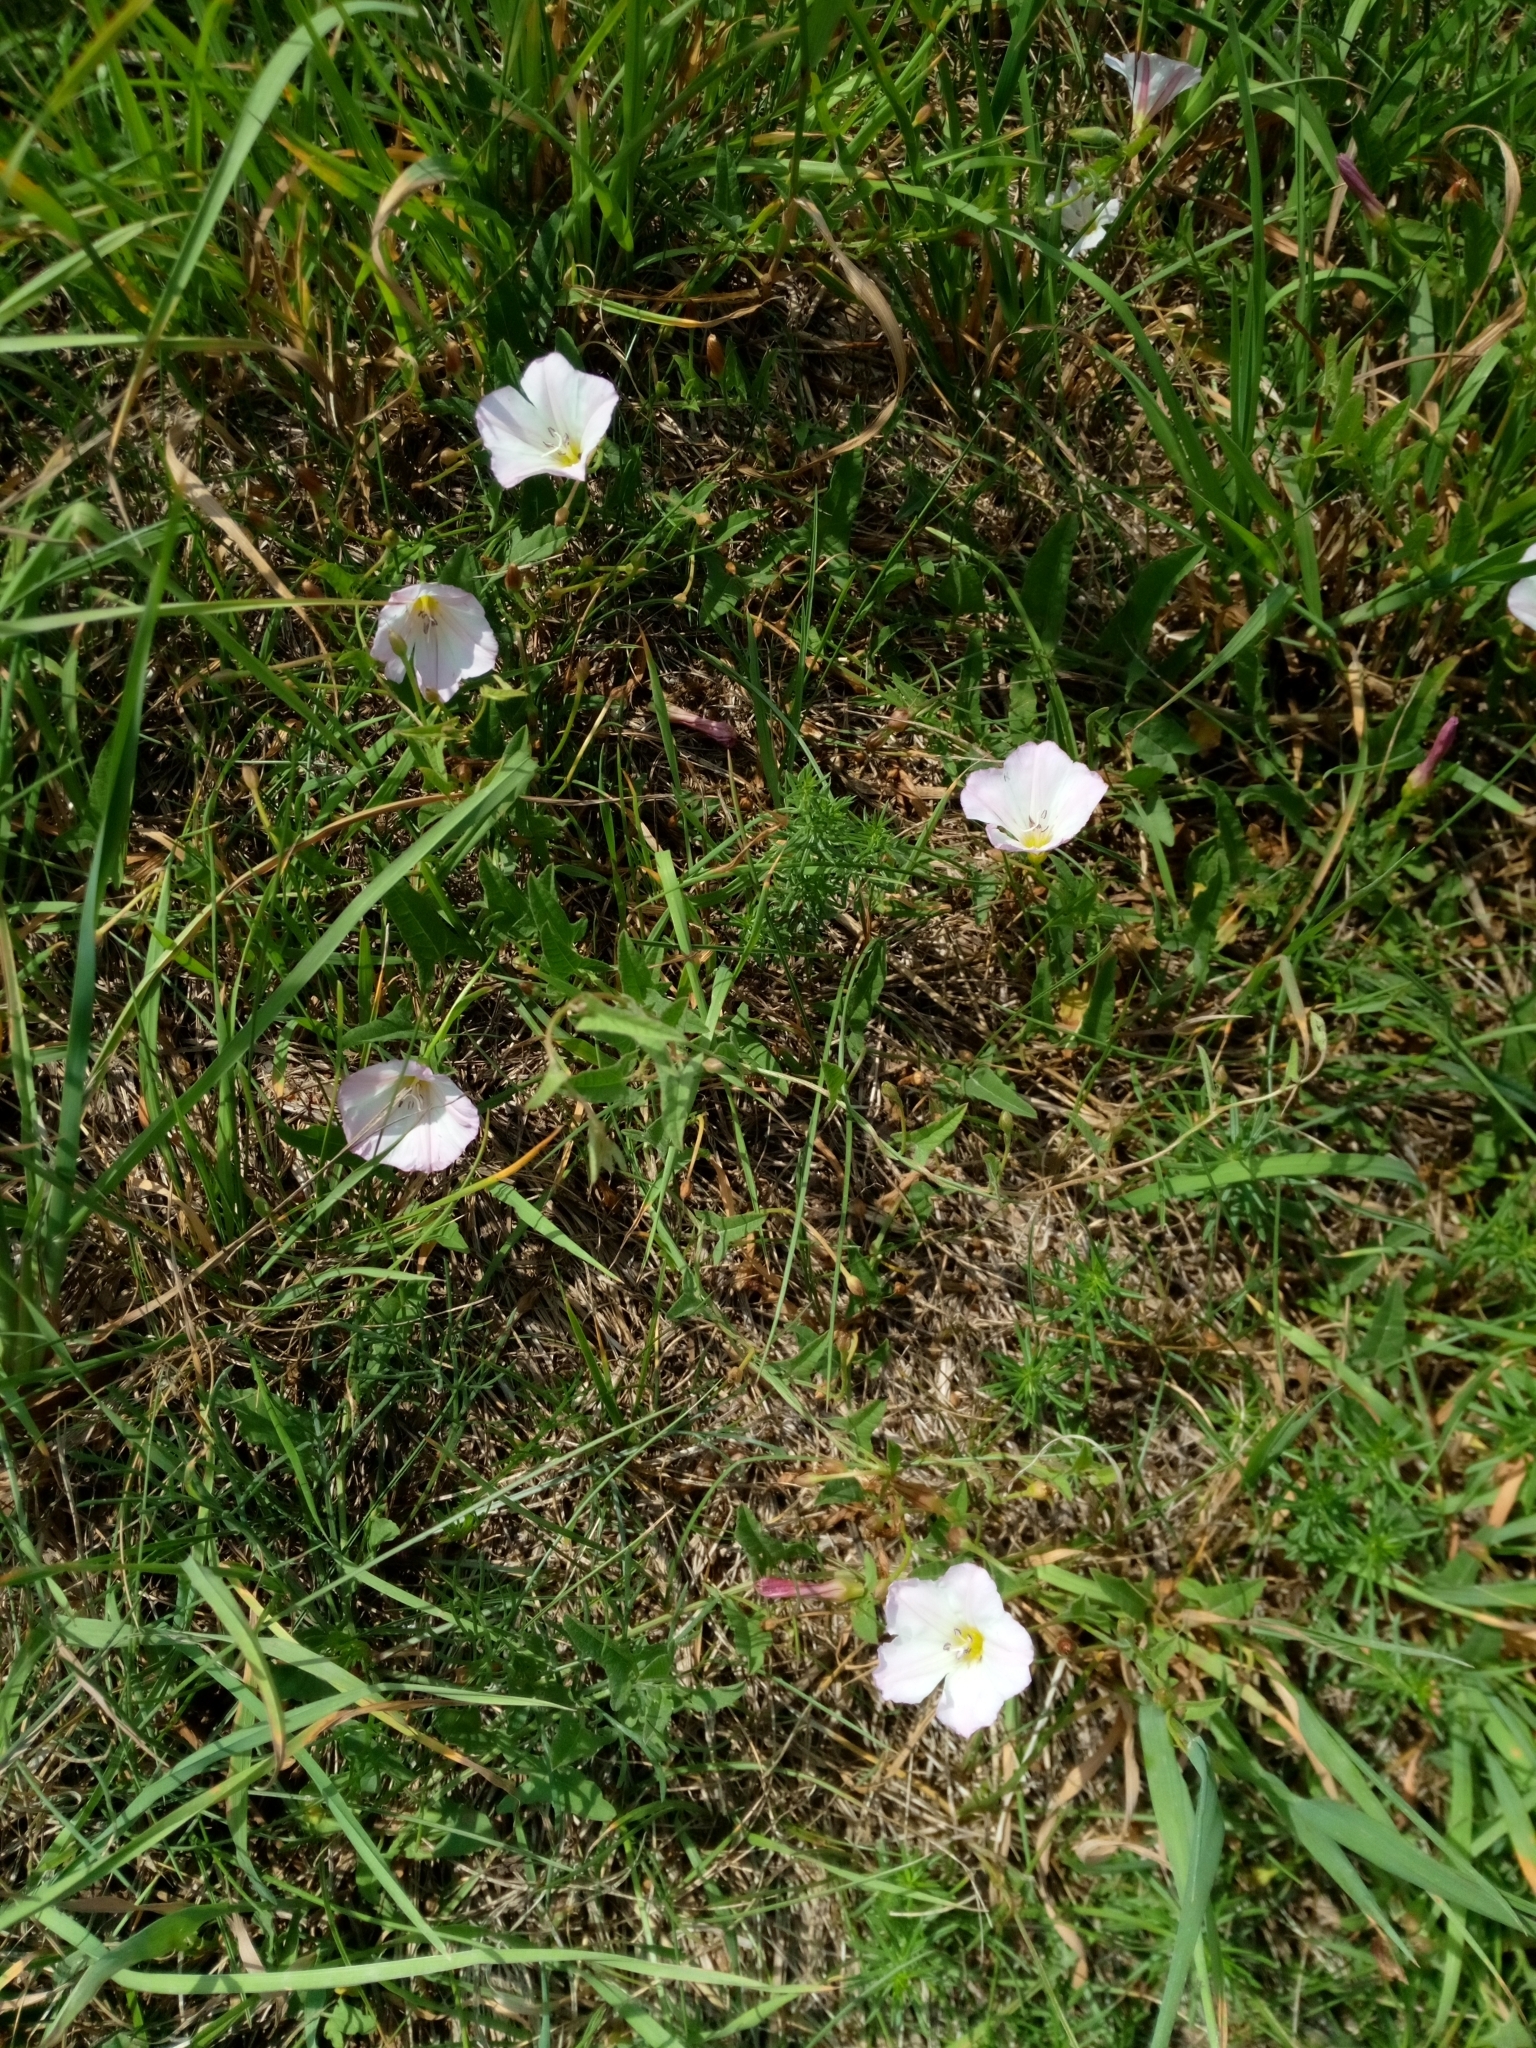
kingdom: Plantae
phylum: Tracheophyta
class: Magnoliopsida
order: Solanales
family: Convolvulaceae
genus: Convolvulus
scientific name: Convolvulus arvensis
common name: Field bindweed
